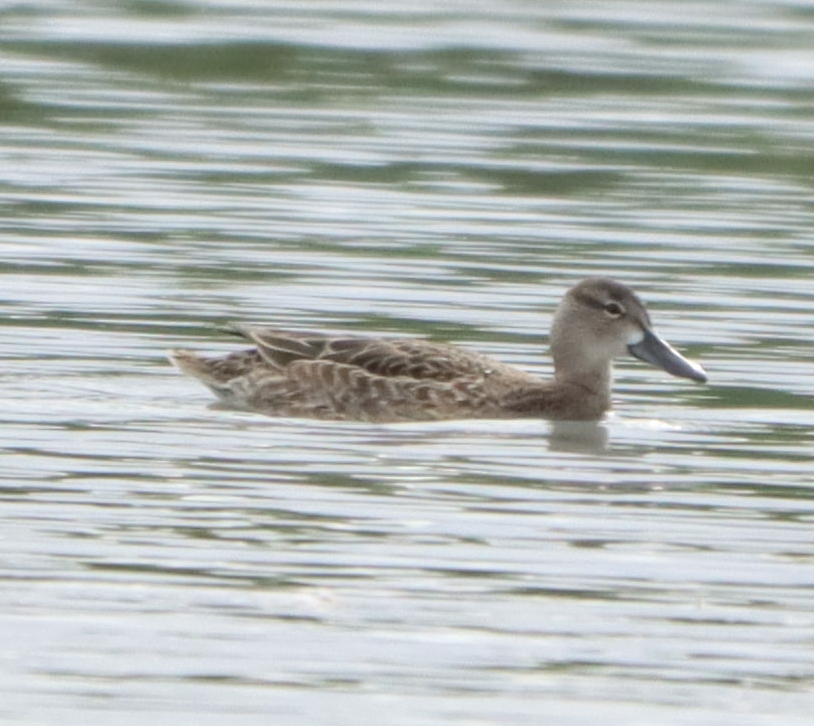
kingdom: Animalia
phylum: Chordata
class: Aves
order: Anseriformes
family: Anatidae
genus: Spatula
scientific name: Spatula discors
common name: Blue-winged teal
